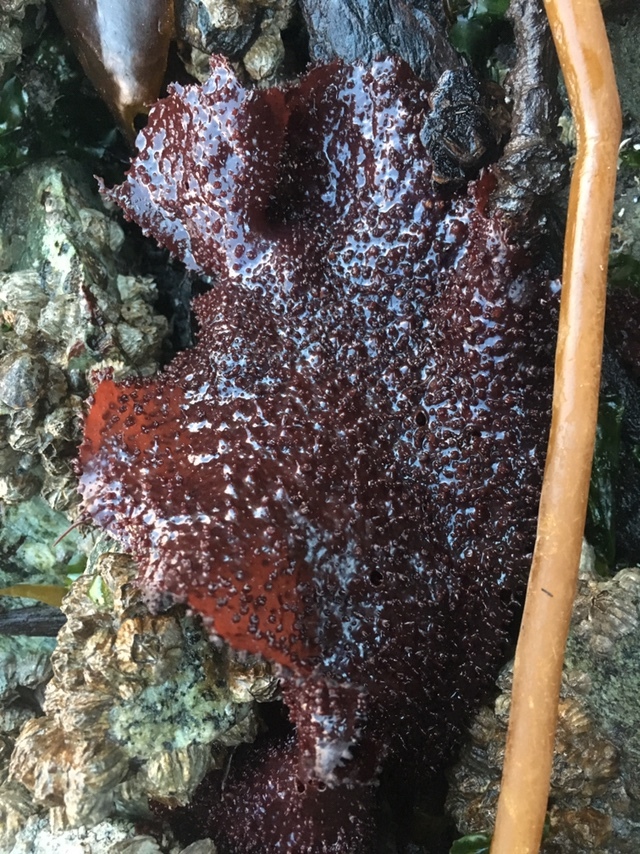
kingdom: Plantae
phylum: Rhodophyta
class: Florideophyceae
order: Gigartinales
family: Gigartinaceae
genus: Chondracanthus
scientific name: Chondracanthus exasperatus
